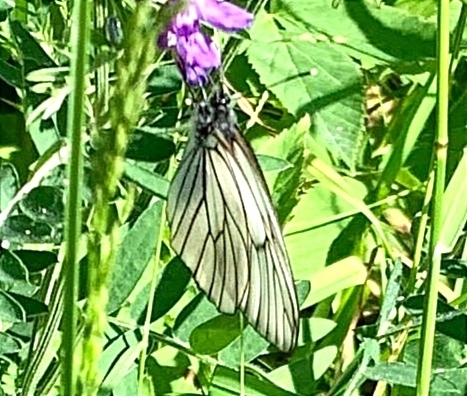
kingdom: Animalia
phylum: Arthropoda
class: Insecta
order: Lepidoptera
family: Pieridae
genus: Aporia
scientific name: Aporia crataegi
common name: Black-veined white
